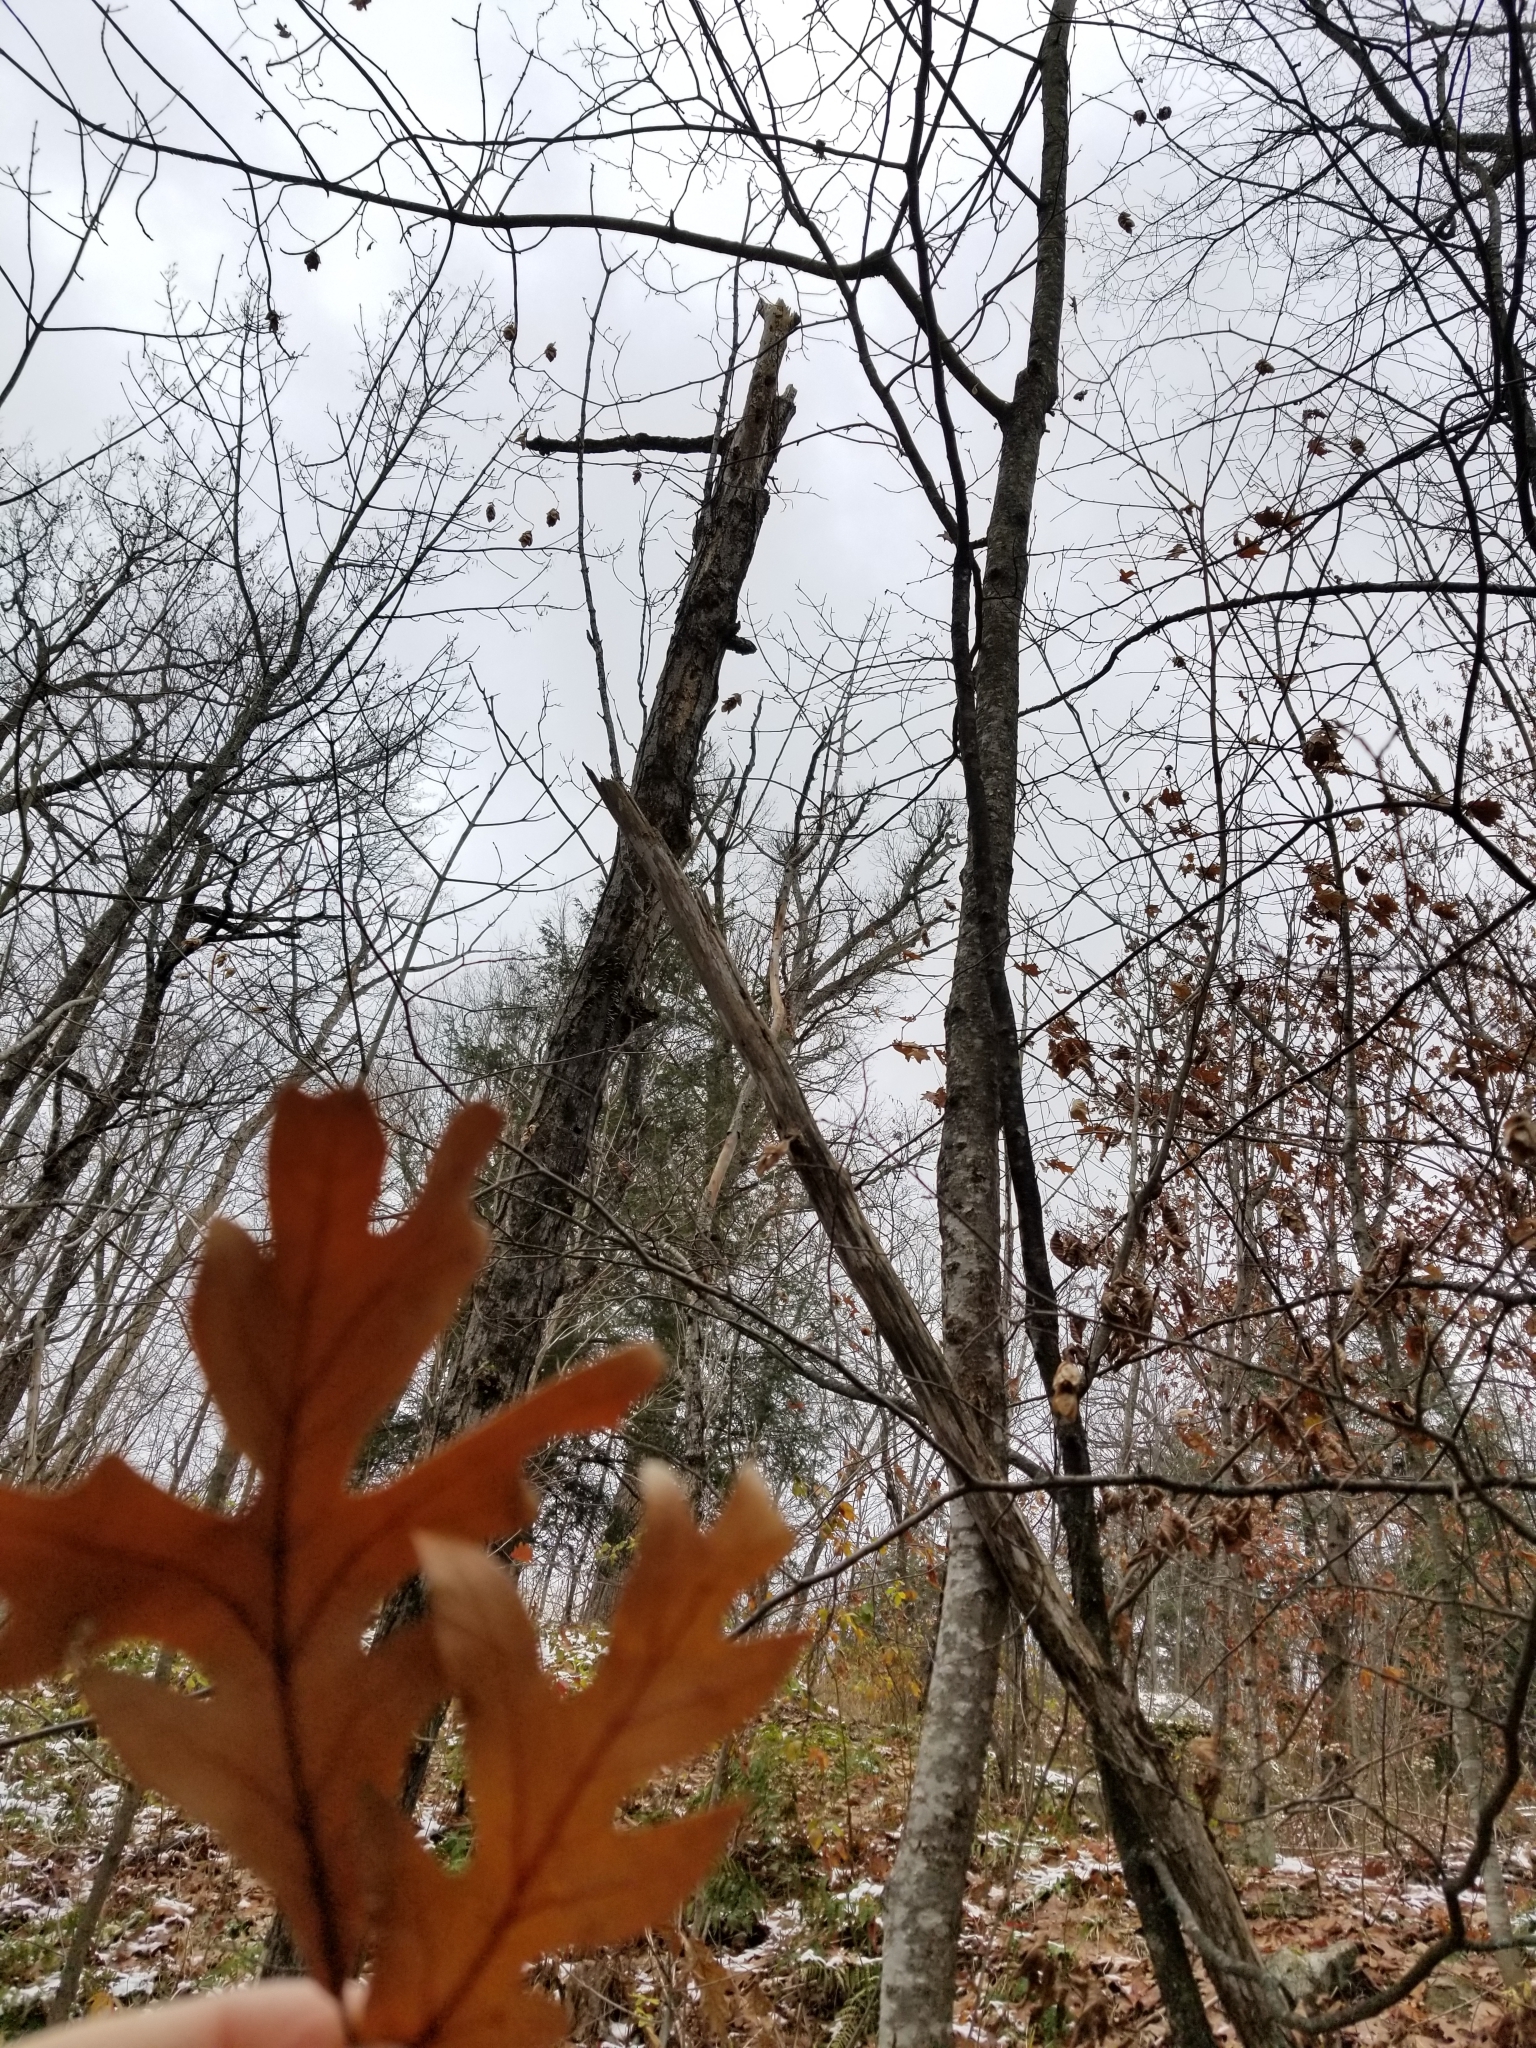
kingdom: Plantae
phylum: Tracheophyta
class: Magnoliopsida
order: Fagales
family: Fagaceae
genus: Quercus
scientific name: Quercus alba
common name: White oak
